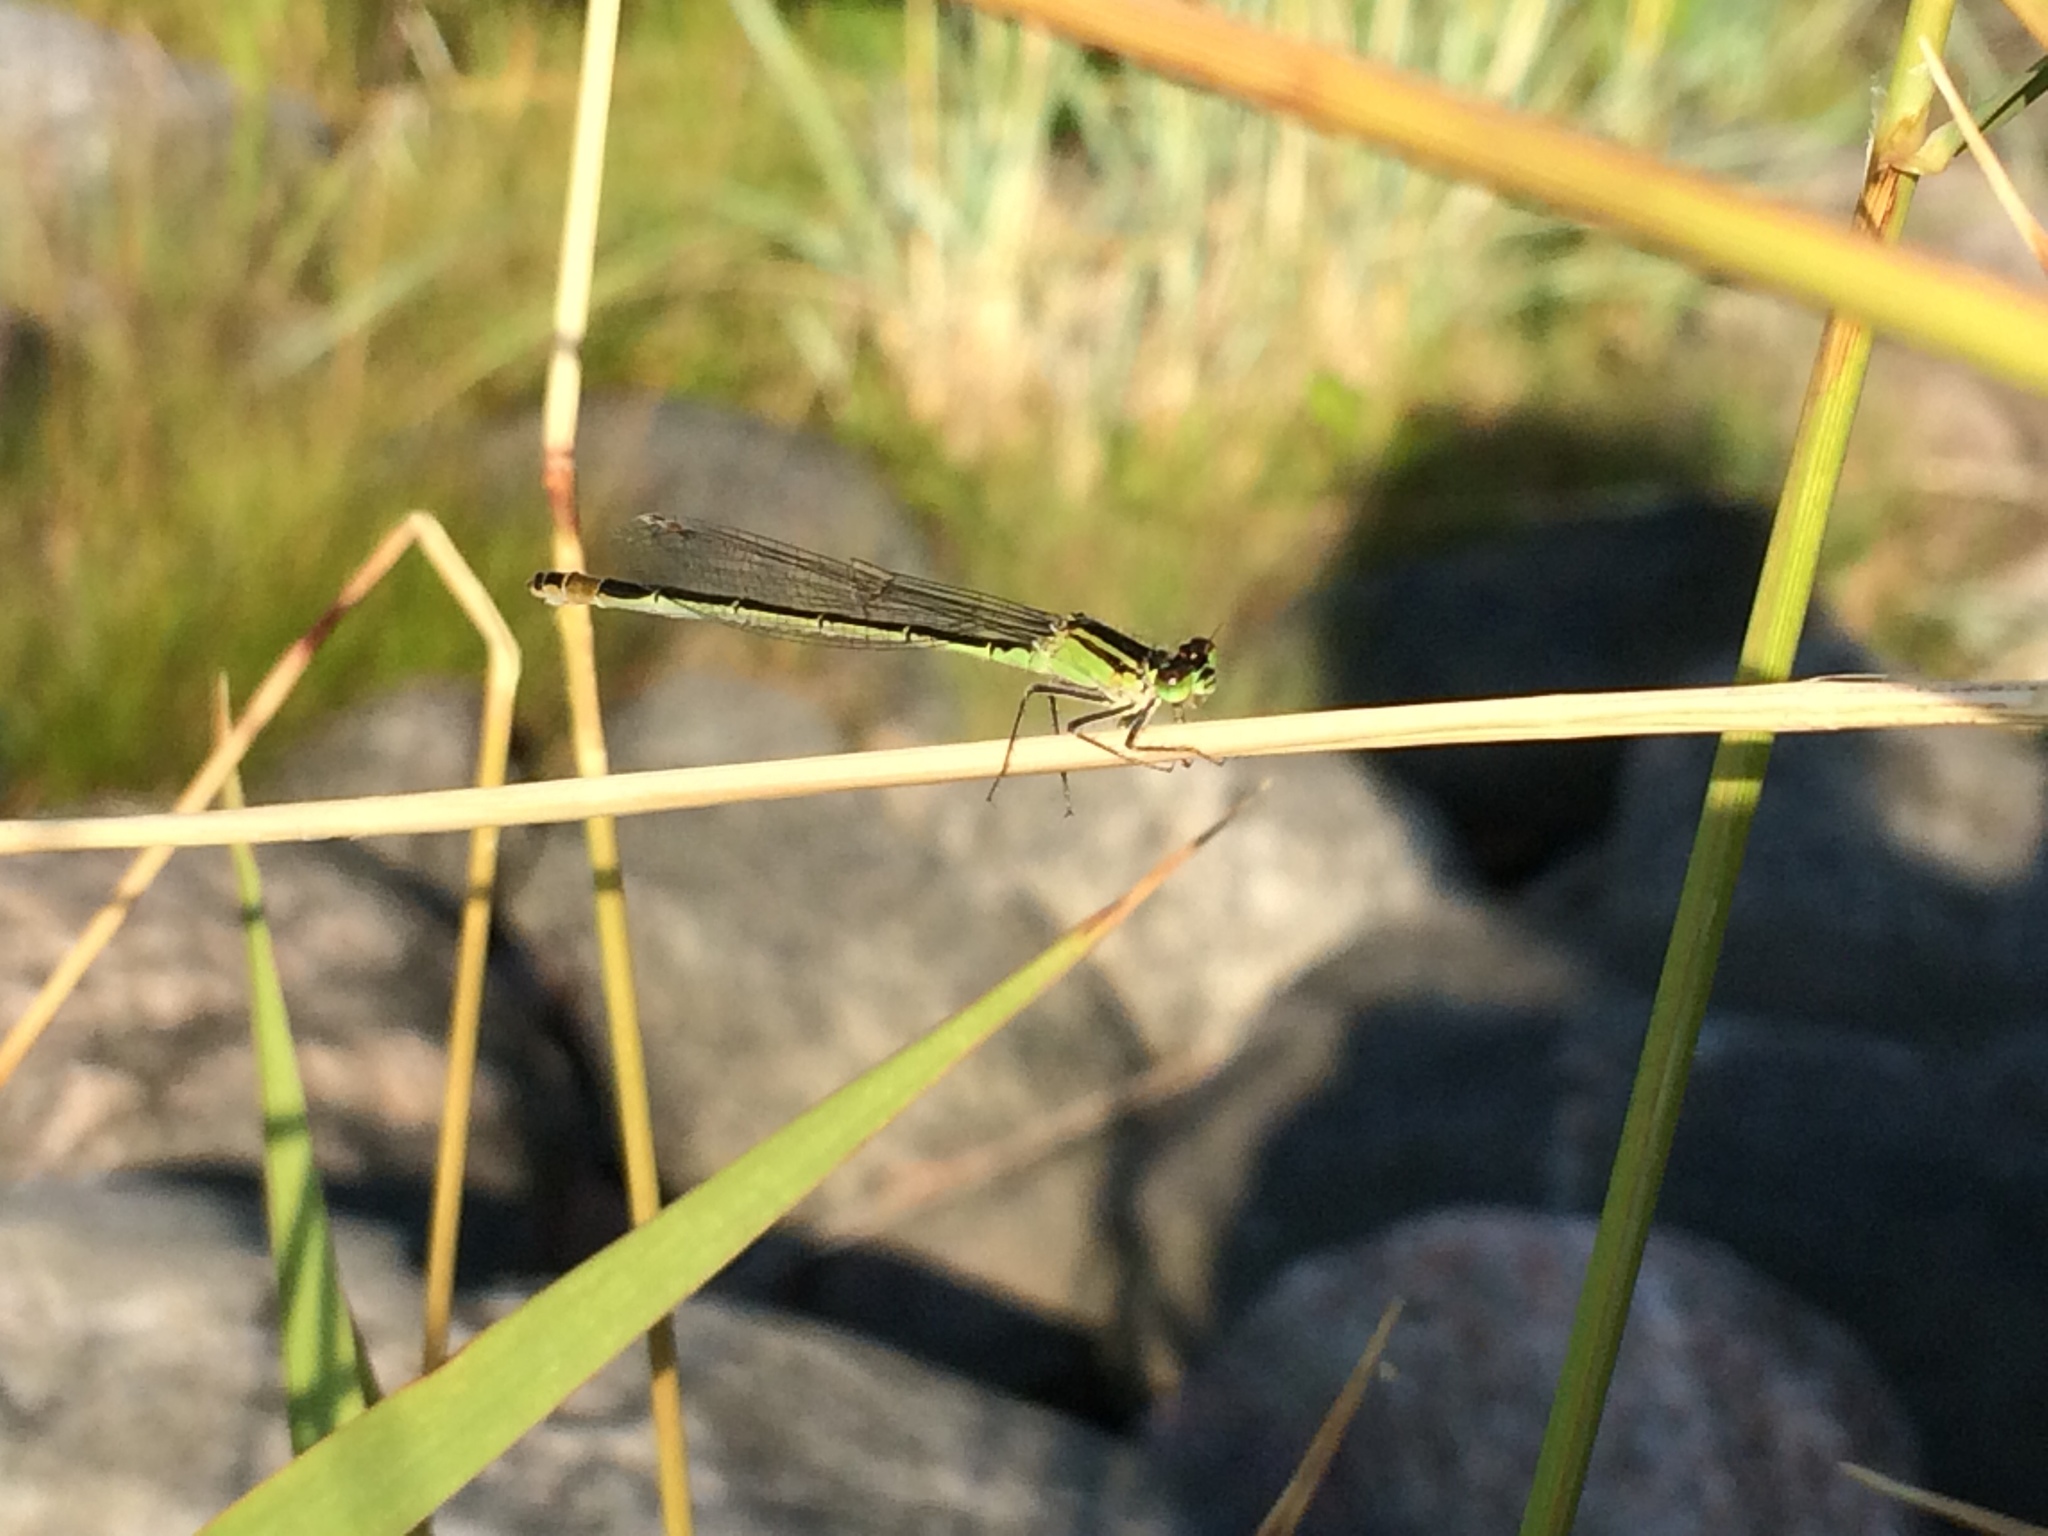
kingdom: Animalia
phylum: Arthropoda
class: Insecta
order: Odonata
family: Coenagrionidae
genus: Ischnura
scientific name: Ischnura elegans
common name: Blue-tailed damselfly
